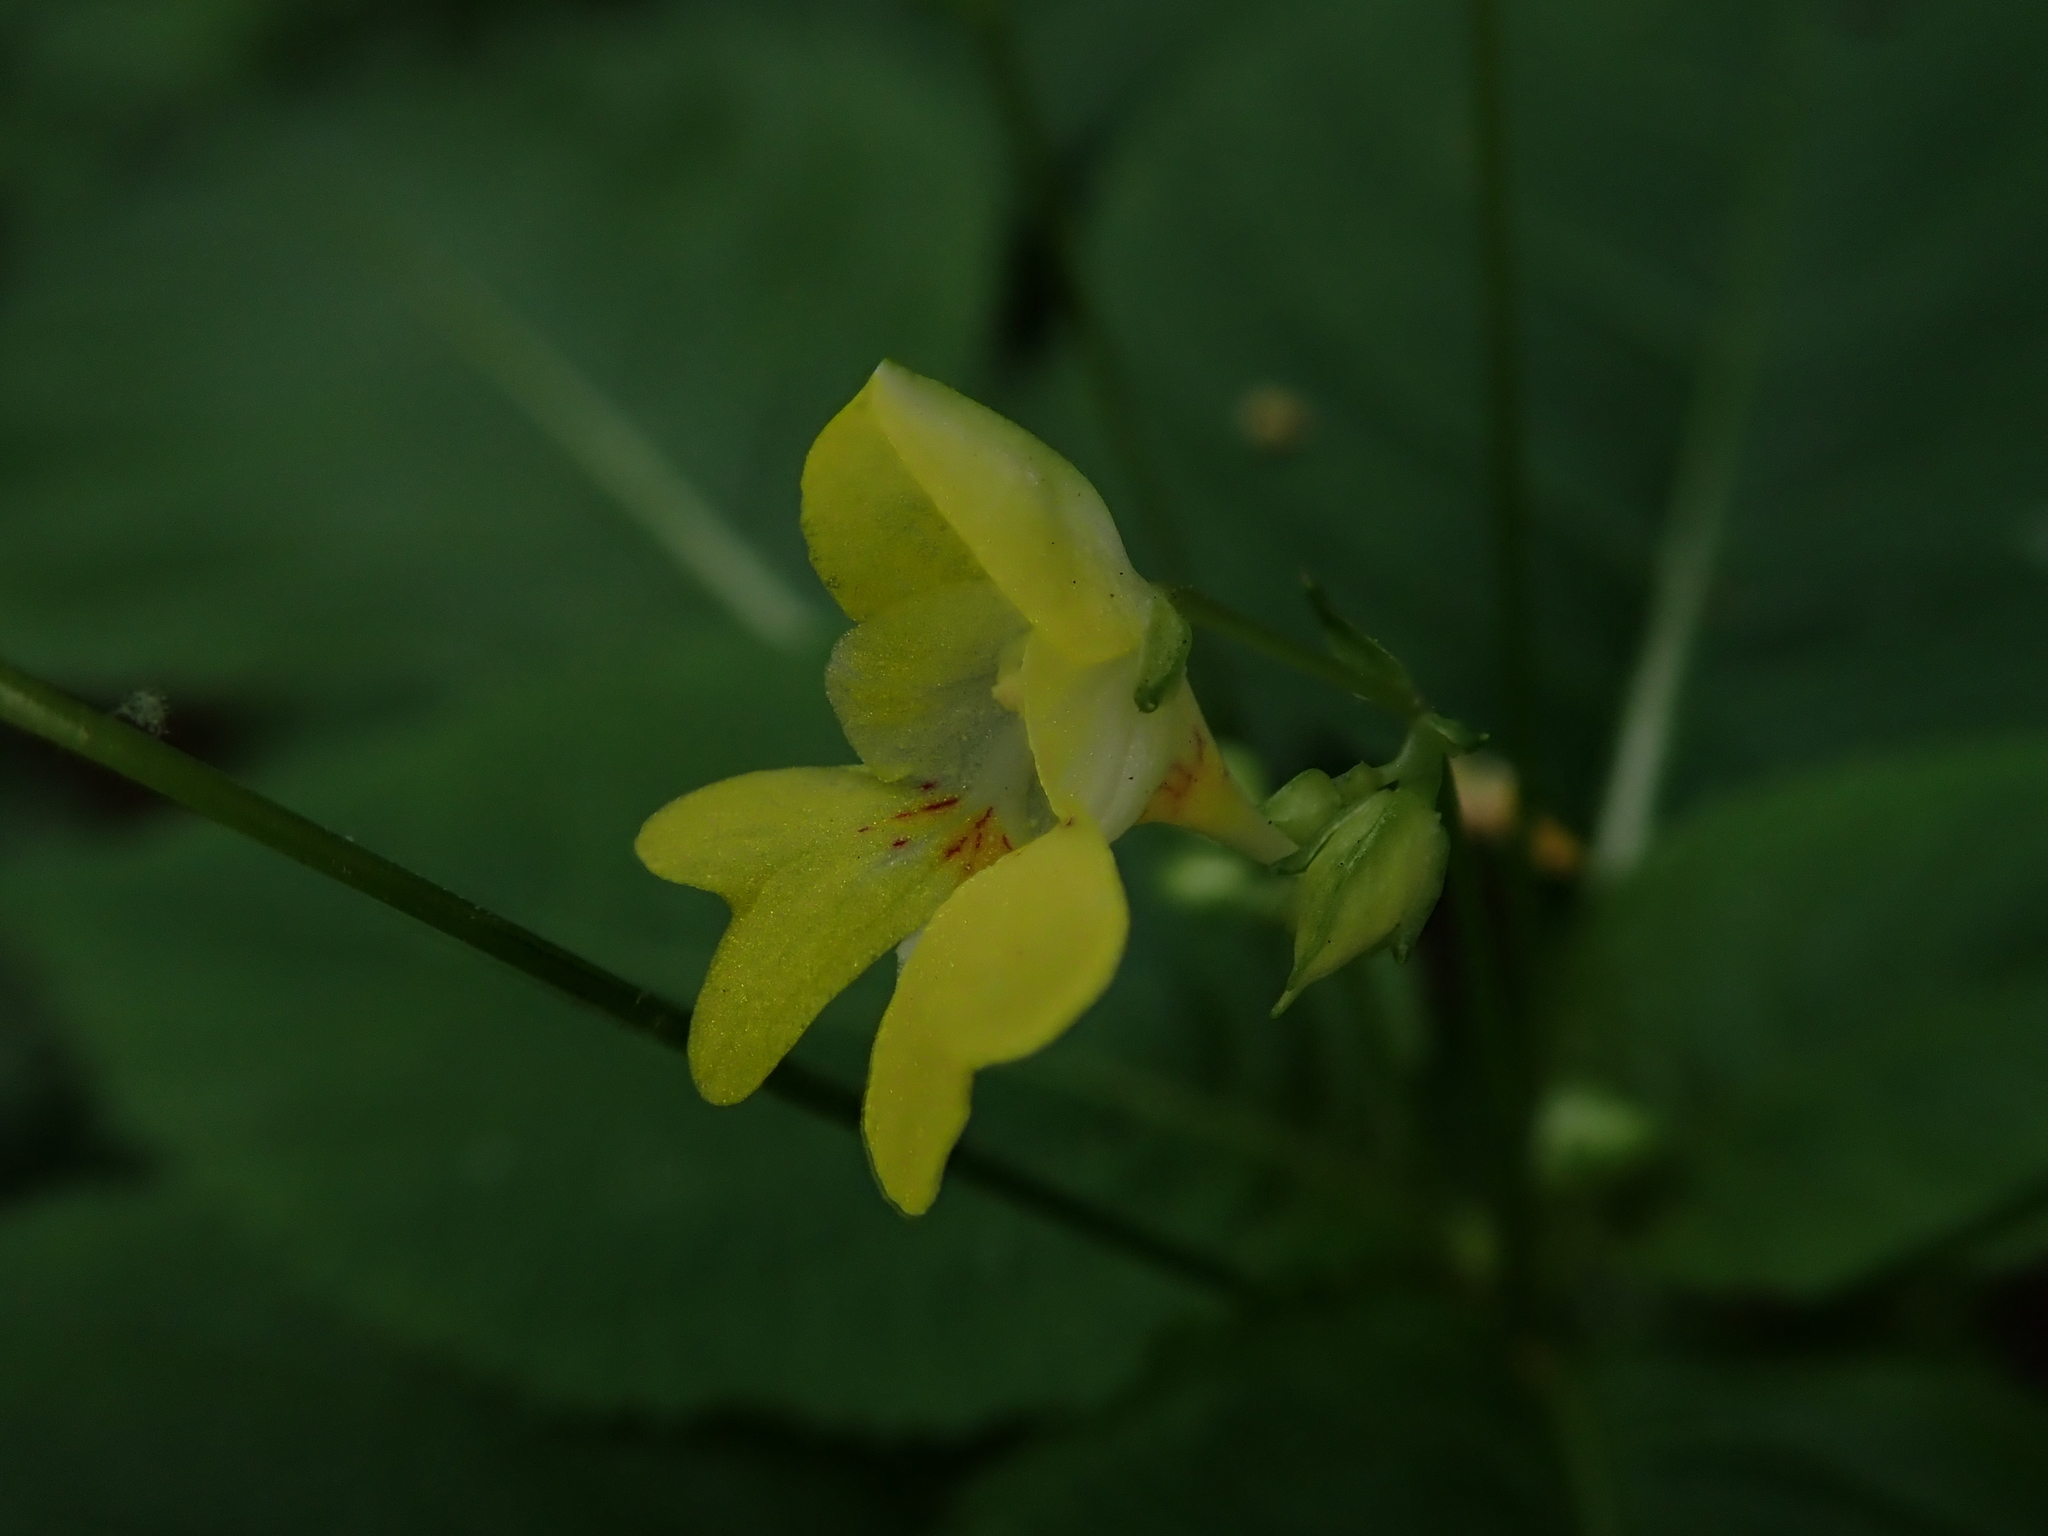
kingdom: Plantae
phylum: Tracheophyta
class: Magnoliopsida
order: Ericales
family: Balsaminaceae
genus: Impatiens
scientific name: Impatiens parviflora
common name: Small balsam
